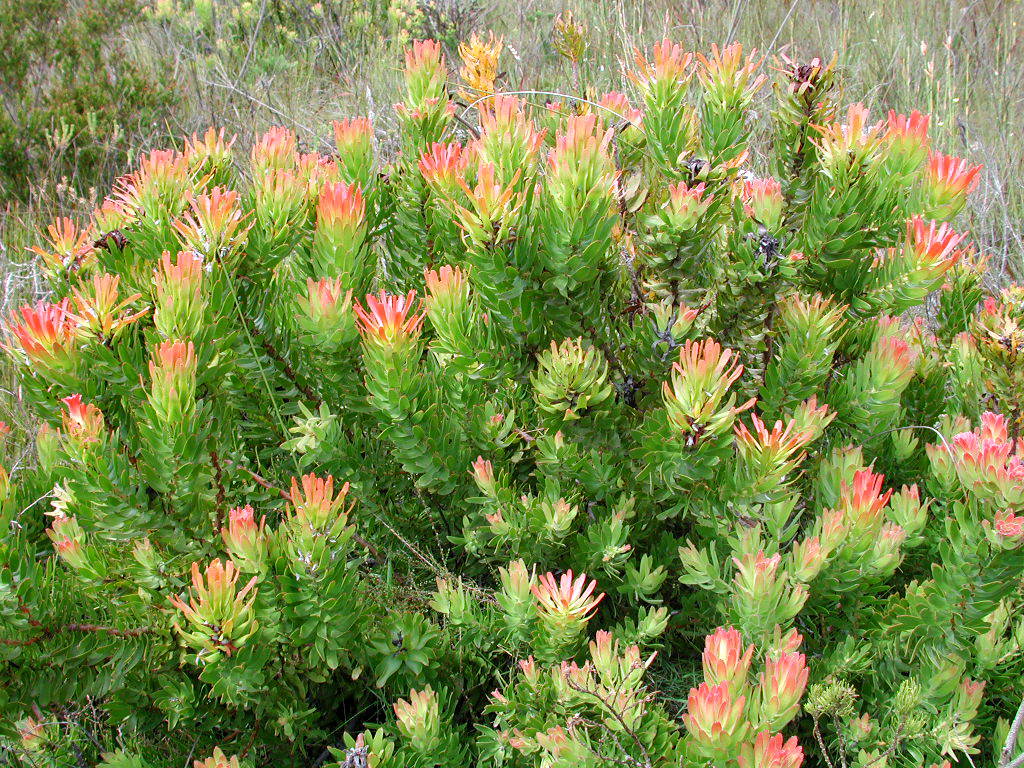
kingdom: Plantae
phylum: Tracheophyta
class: Magnoliopsida
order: Proteales
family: Proteaceae
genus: Mimetes
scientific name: Mimetes cucullatus
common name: Common pagoda
